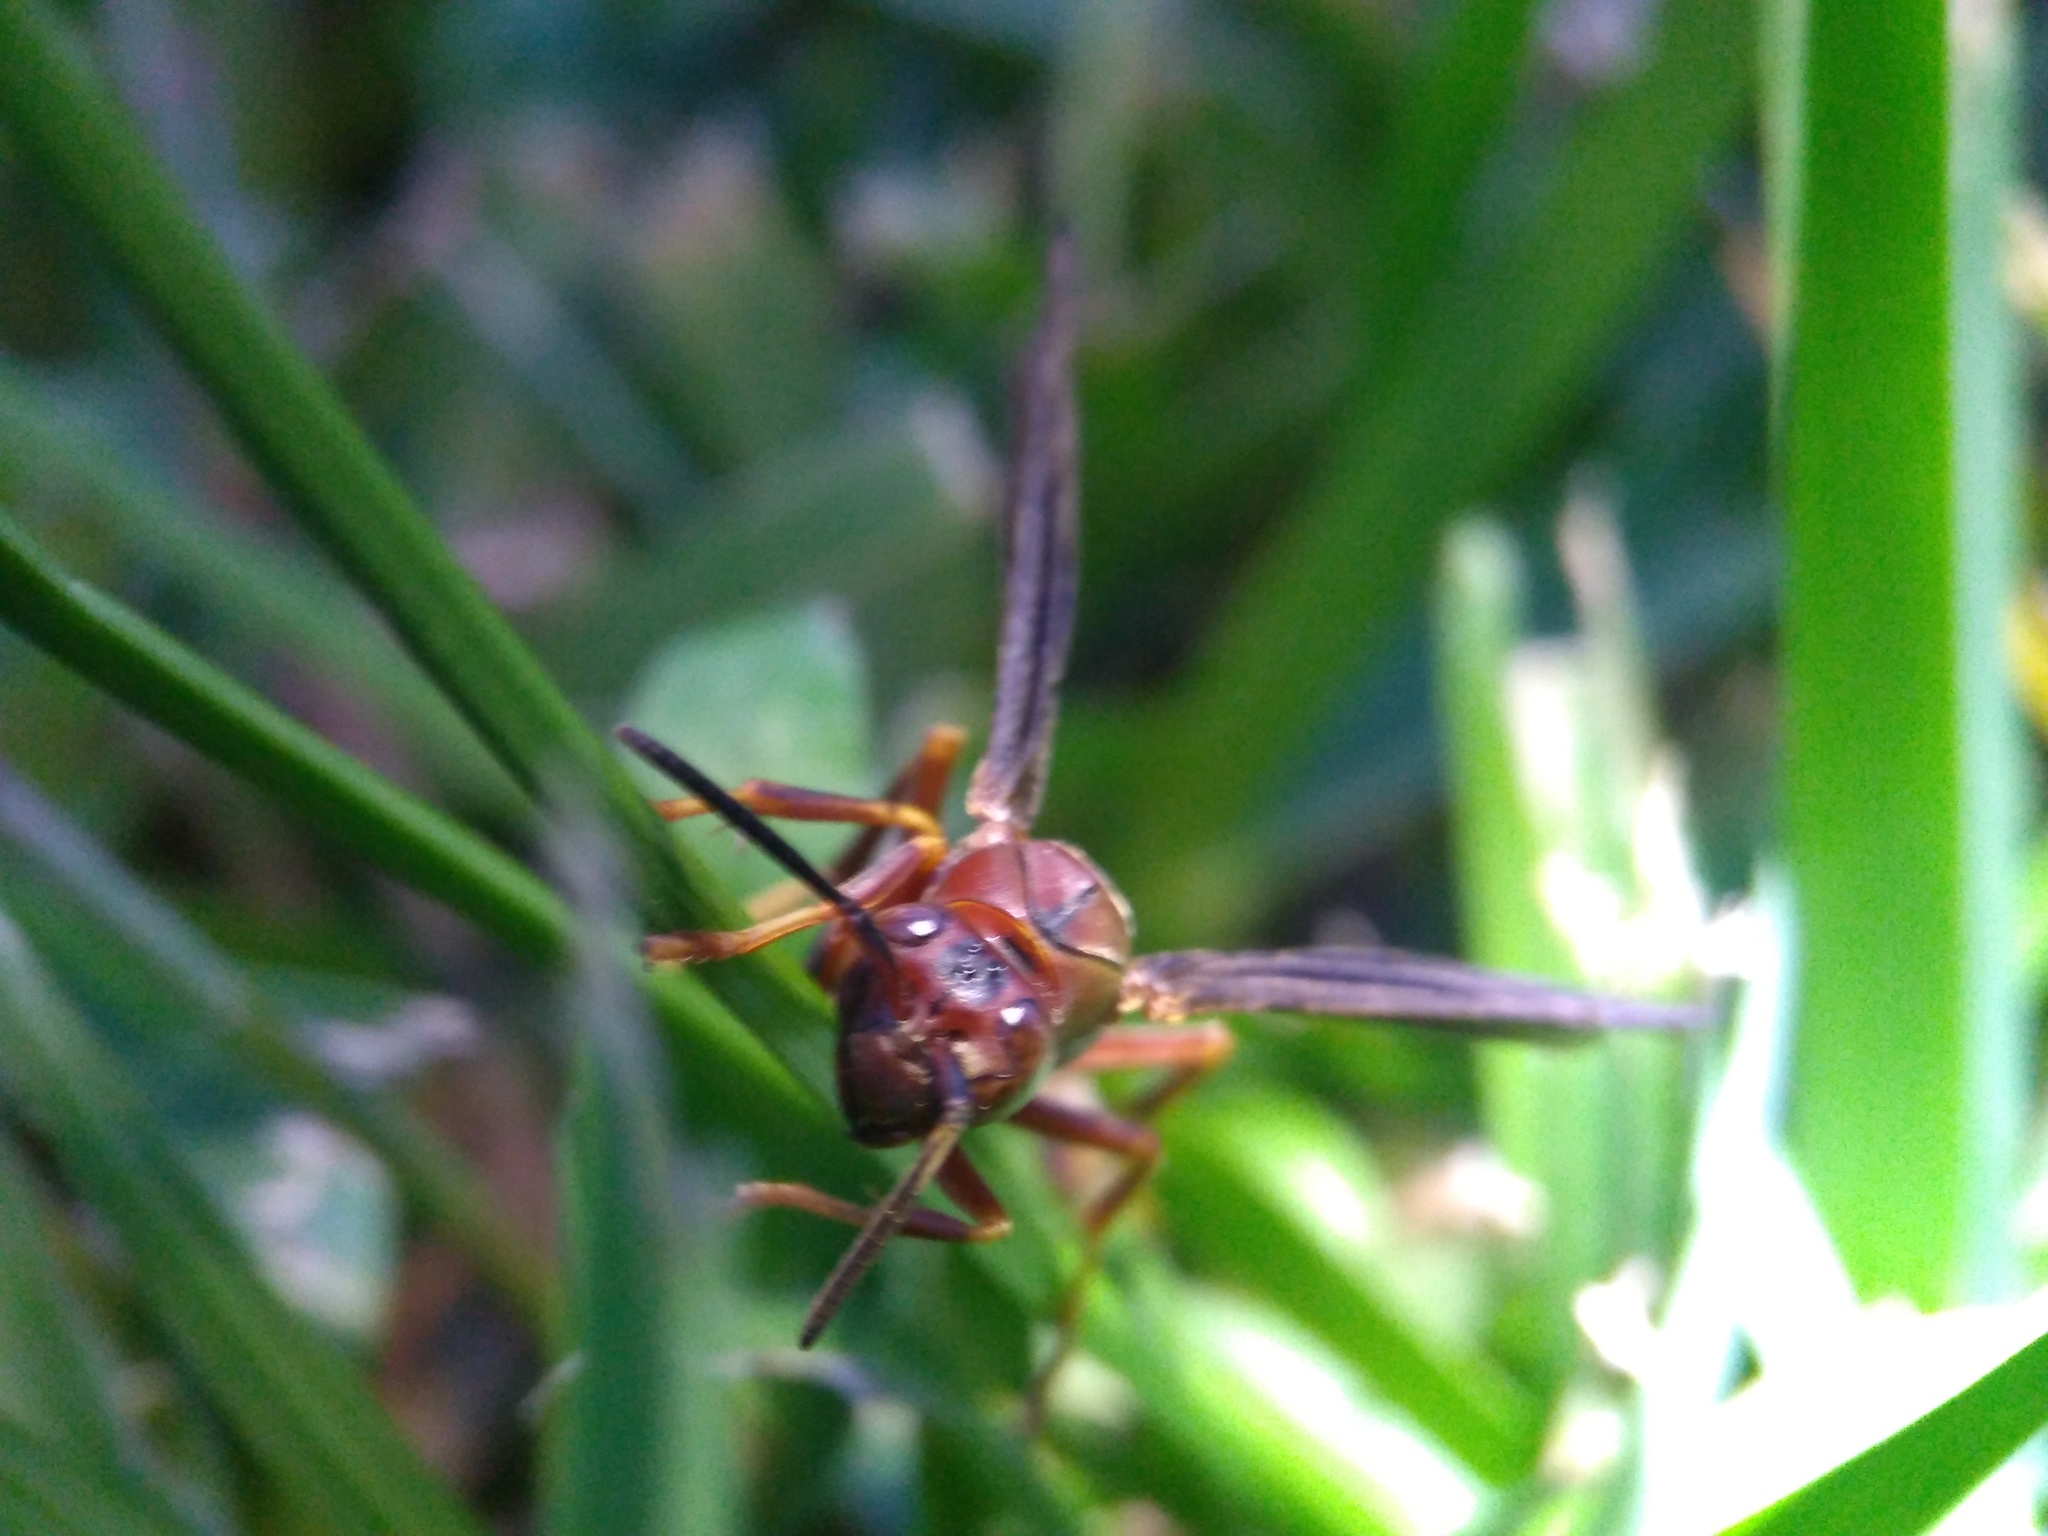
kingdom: Animalia
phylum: Arthropoda
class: Insecta
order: Hymenoptera
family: Eumenidae
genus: Polistes
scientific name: Polistes metricus
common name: Metric paper wasp
